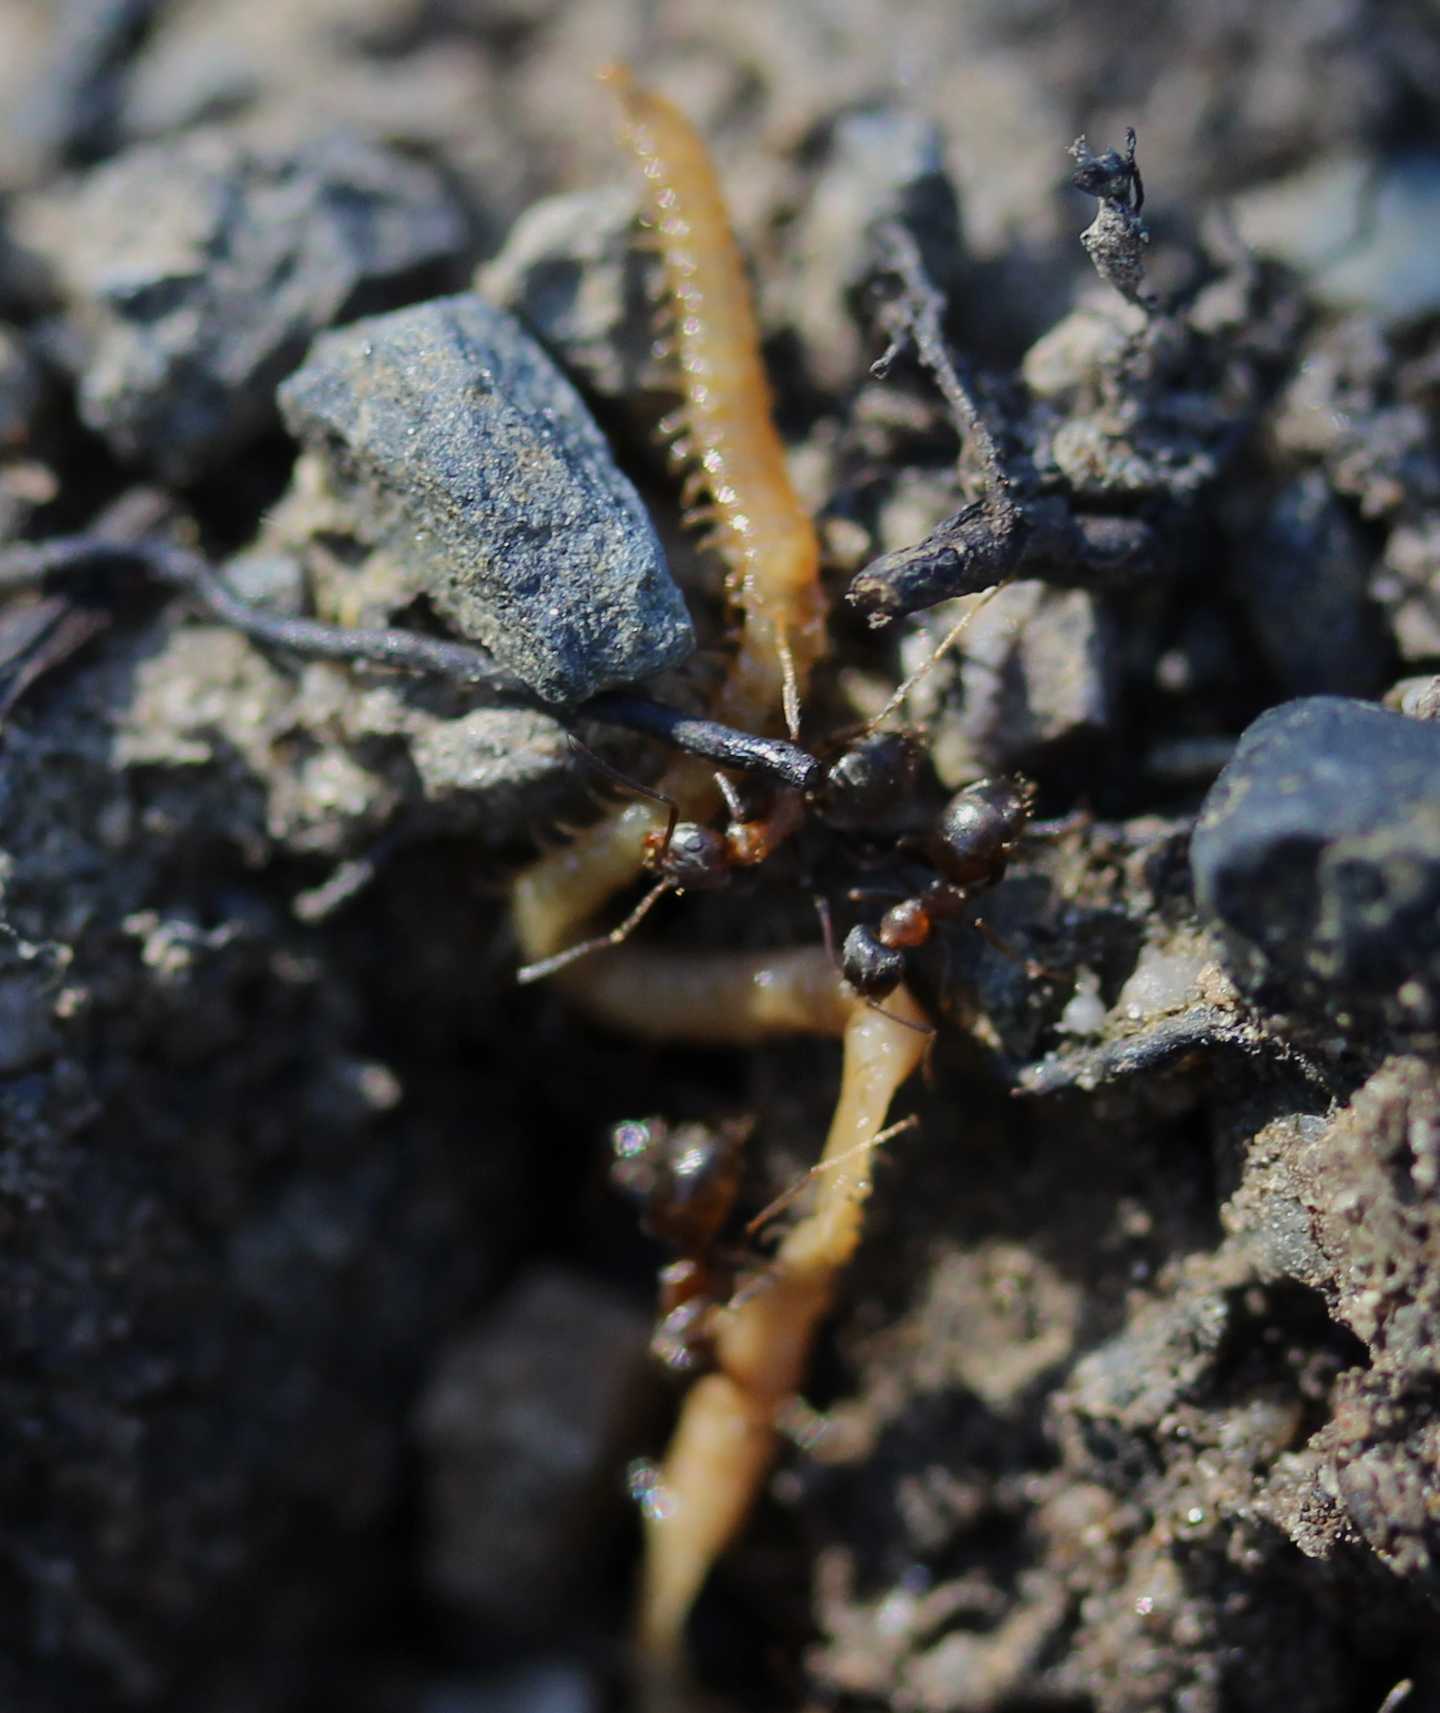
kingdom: Animalia
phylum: Arthropoda
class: Insecta
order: Hymenoptera
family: Formicidae
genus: Lasius
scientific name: Lasius emarginatus
